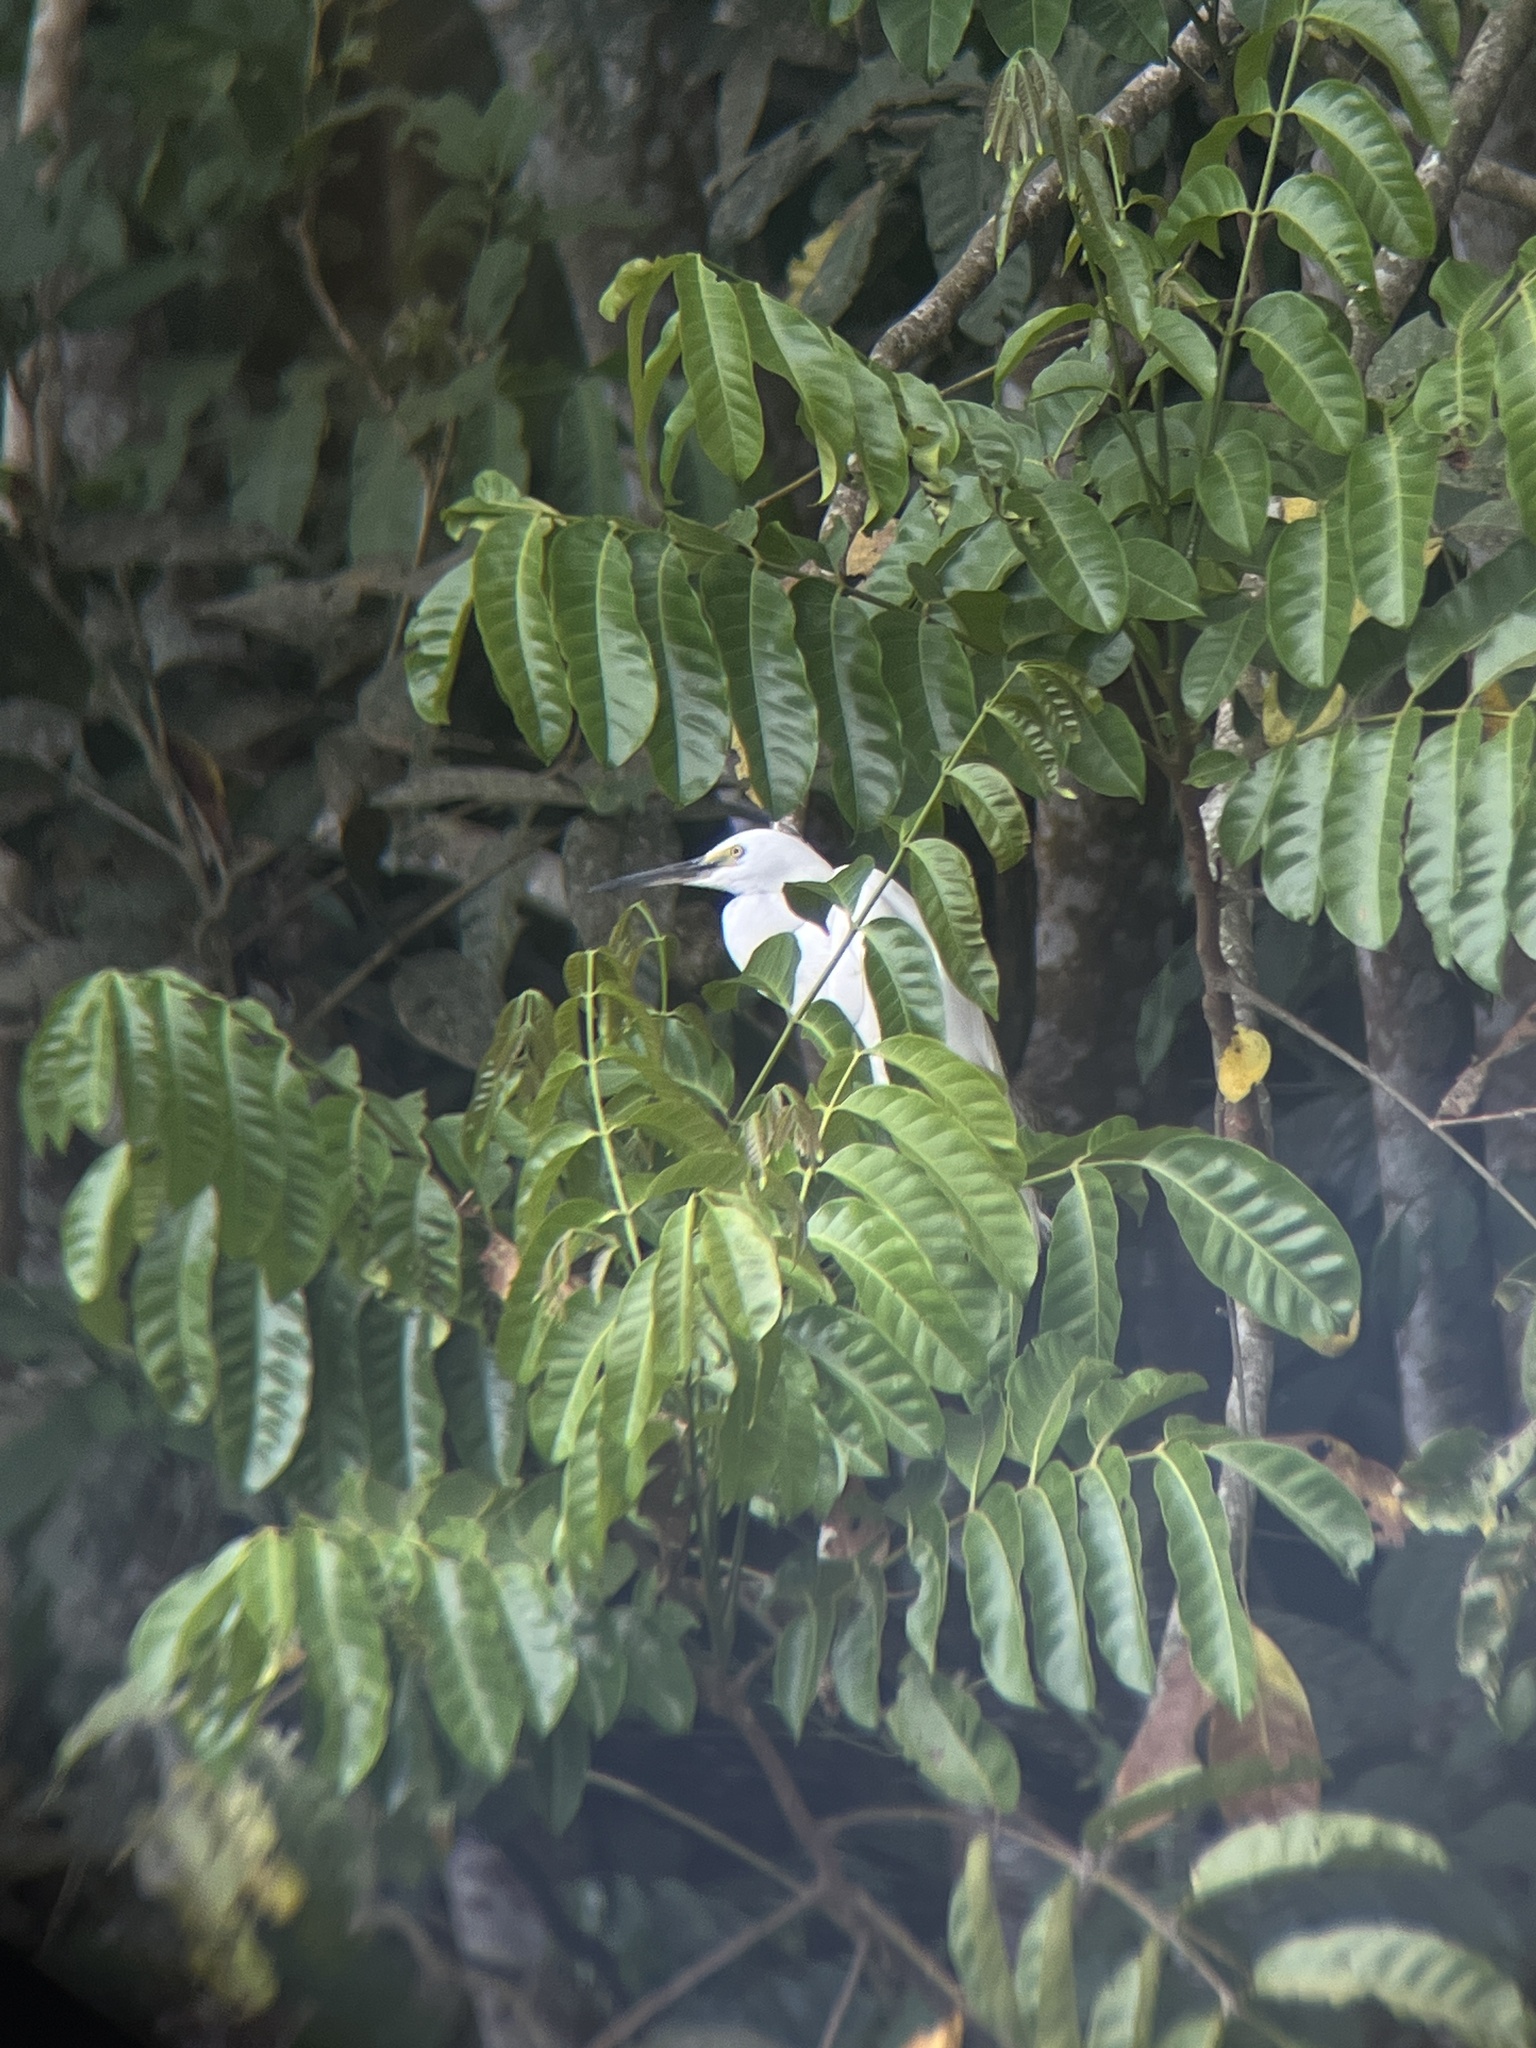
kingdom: Animalia
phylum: Chordata
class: Aves
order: Pelecaniformes
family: Ardeidae
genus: Egretta
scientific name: Egretta garzetta
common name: Little egret
